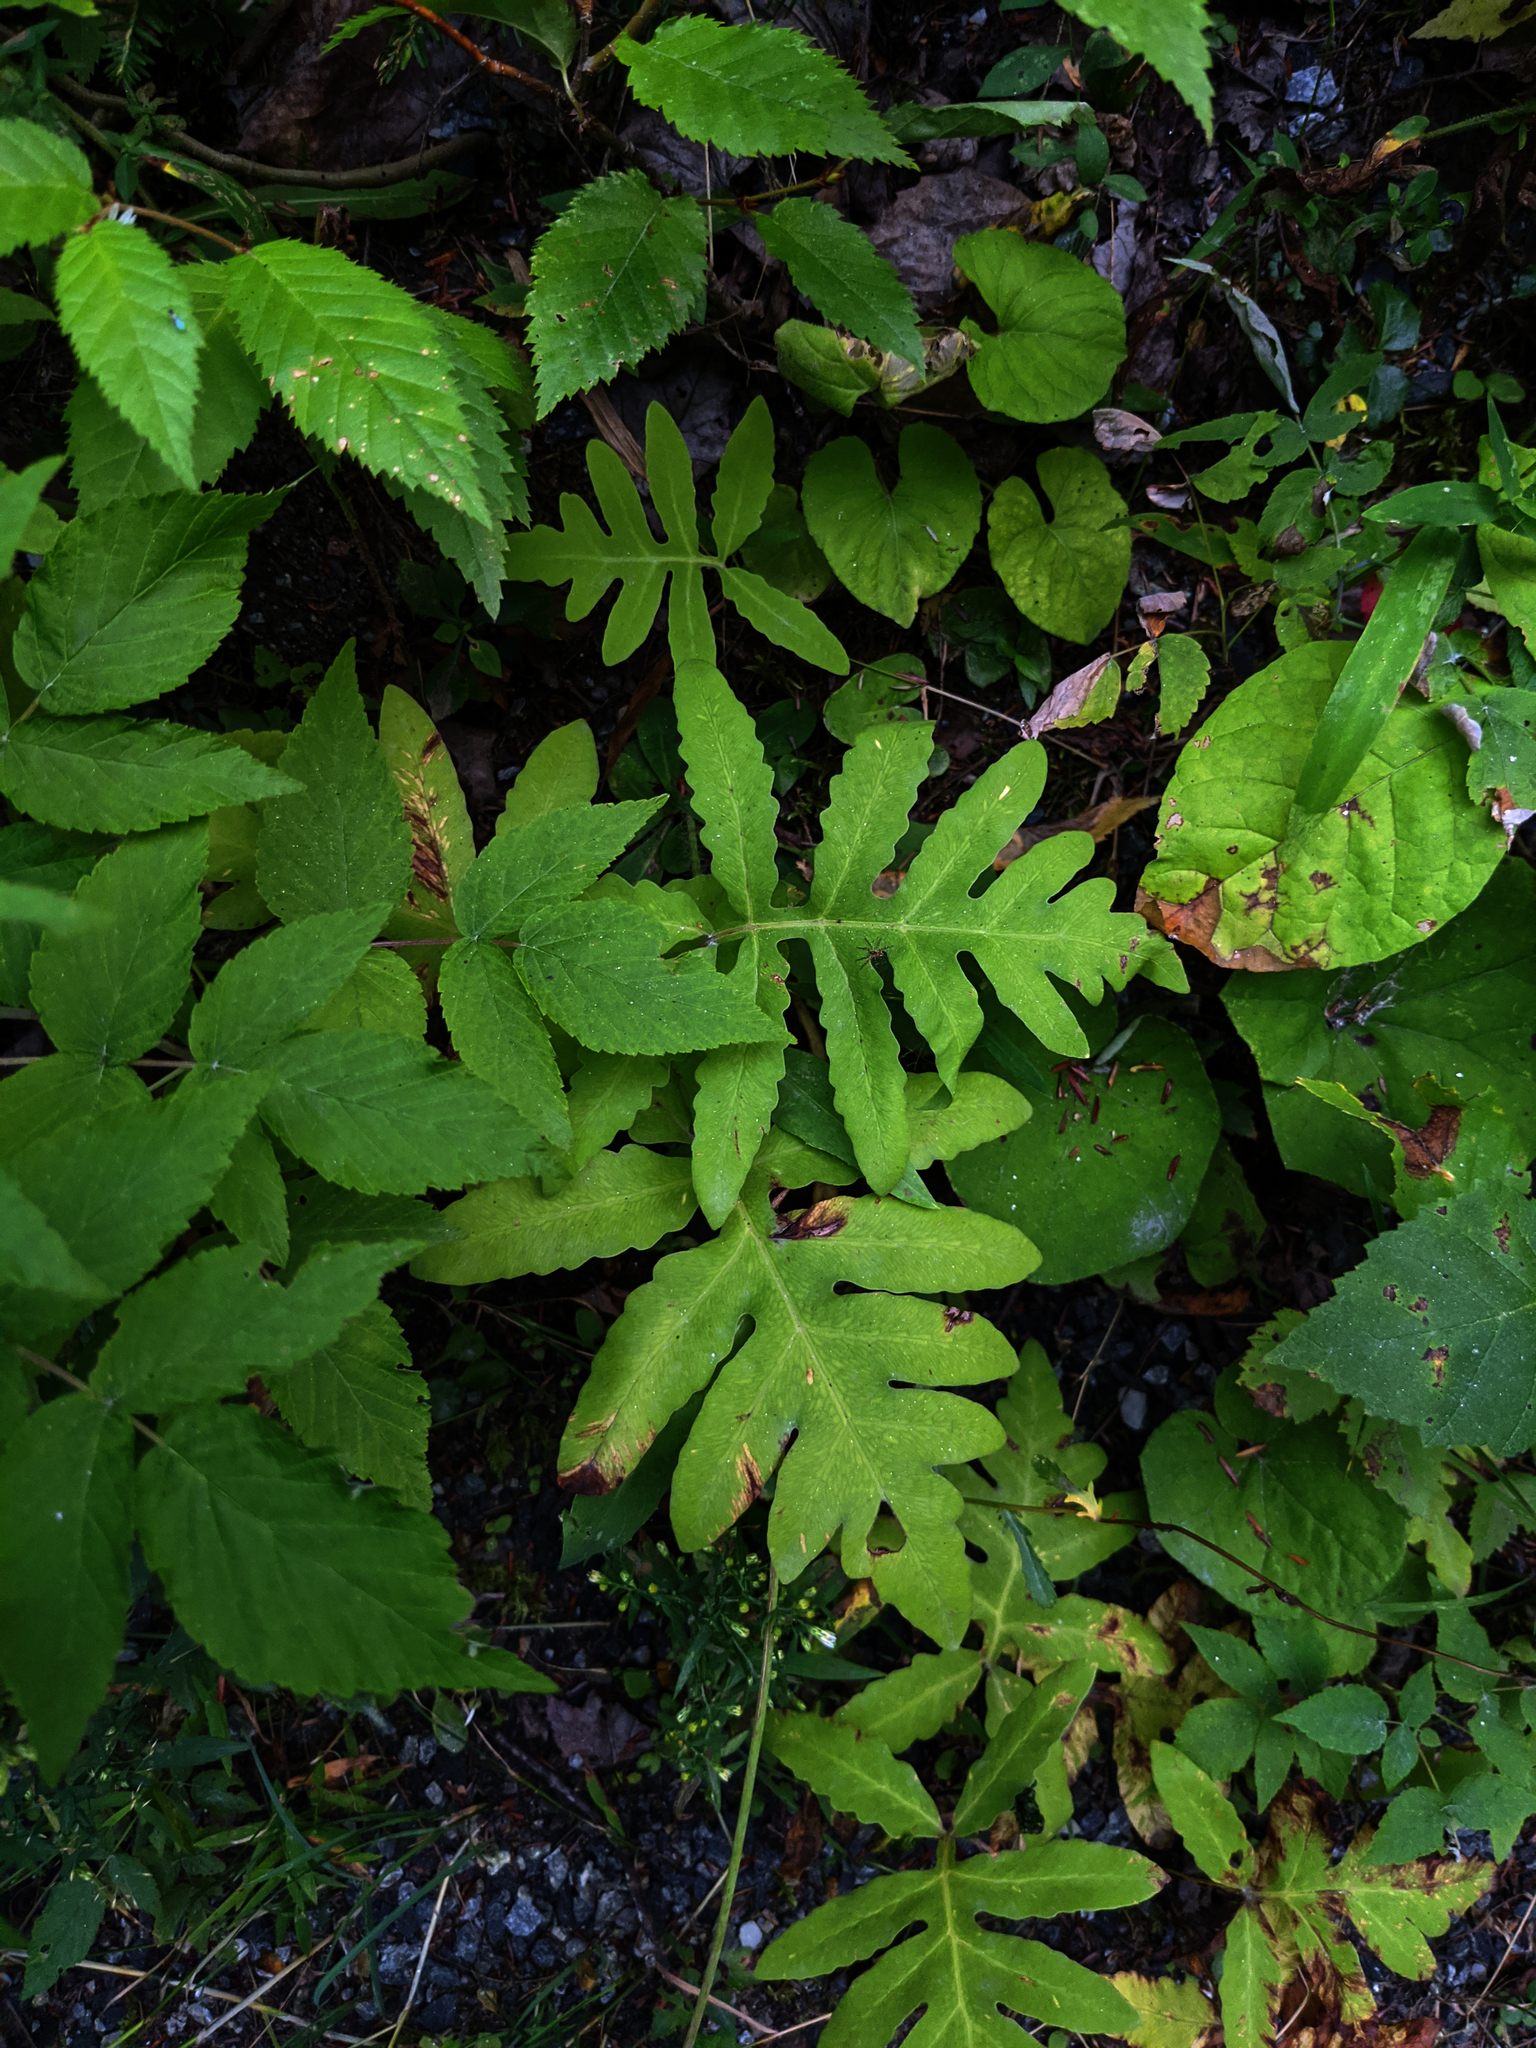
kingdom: Plantae
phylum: Tracheophyta
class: Polypodiopsida
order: Polypodiales
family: Onocleaceae
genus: Onoclea
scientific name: Onoclea sensibilis
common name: Sensitive fern
